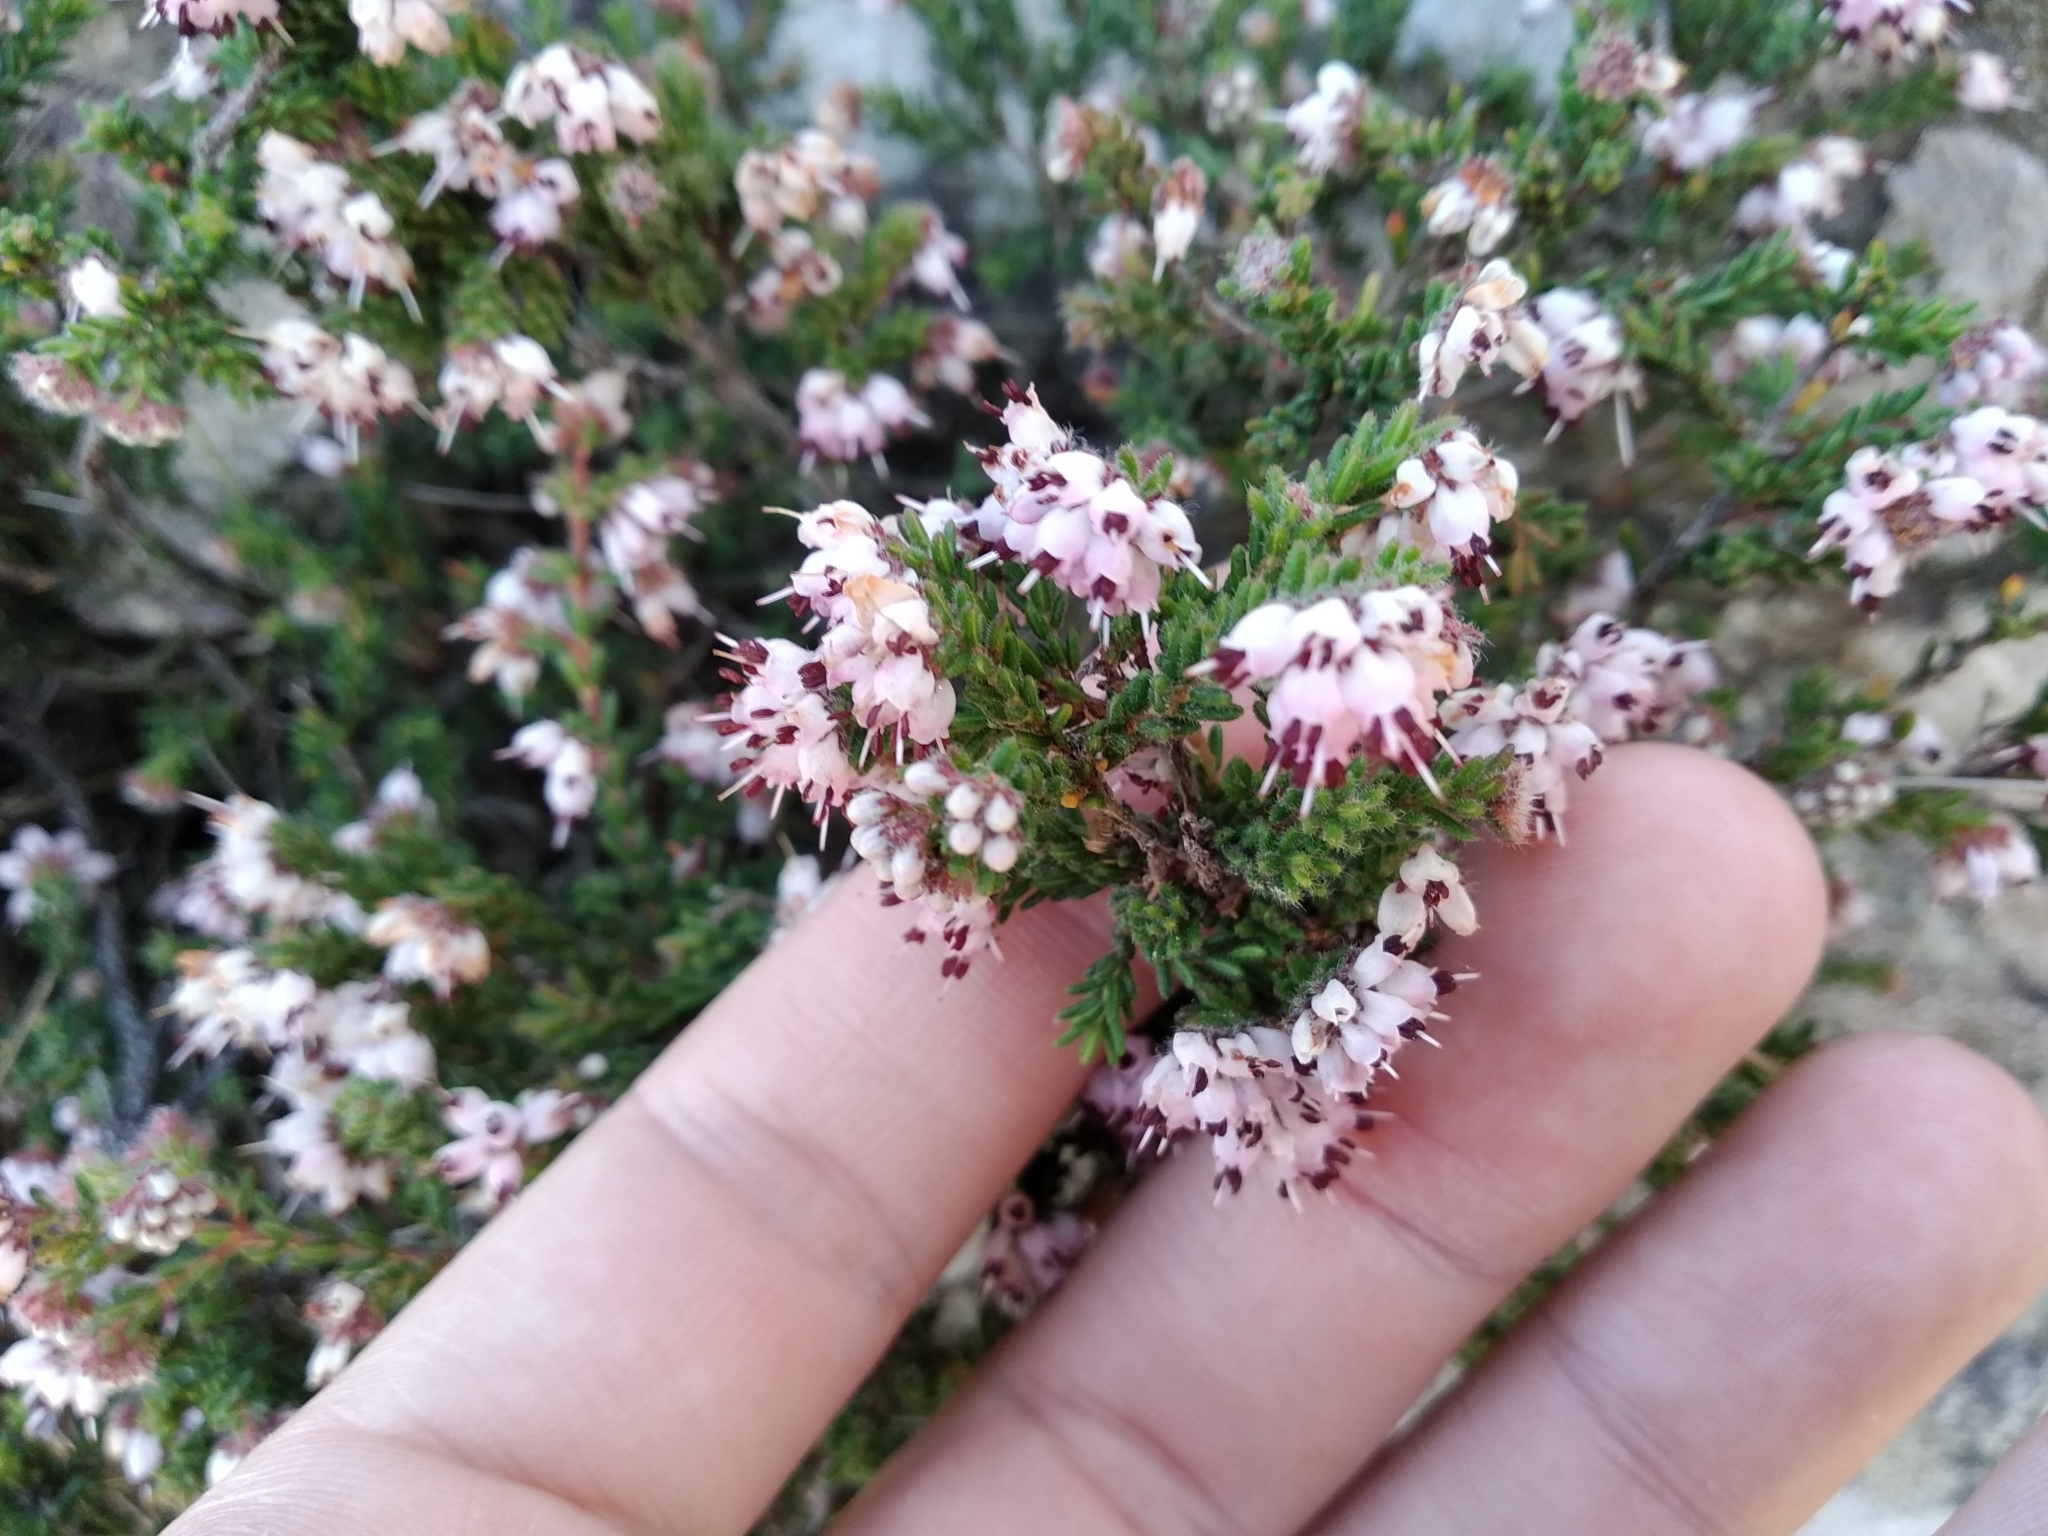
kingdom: Plantae
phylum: Tracheophyta
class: Magnoliopsida
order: Ericales
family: Ericaceae
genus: Erica
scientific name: Erica ericoides
